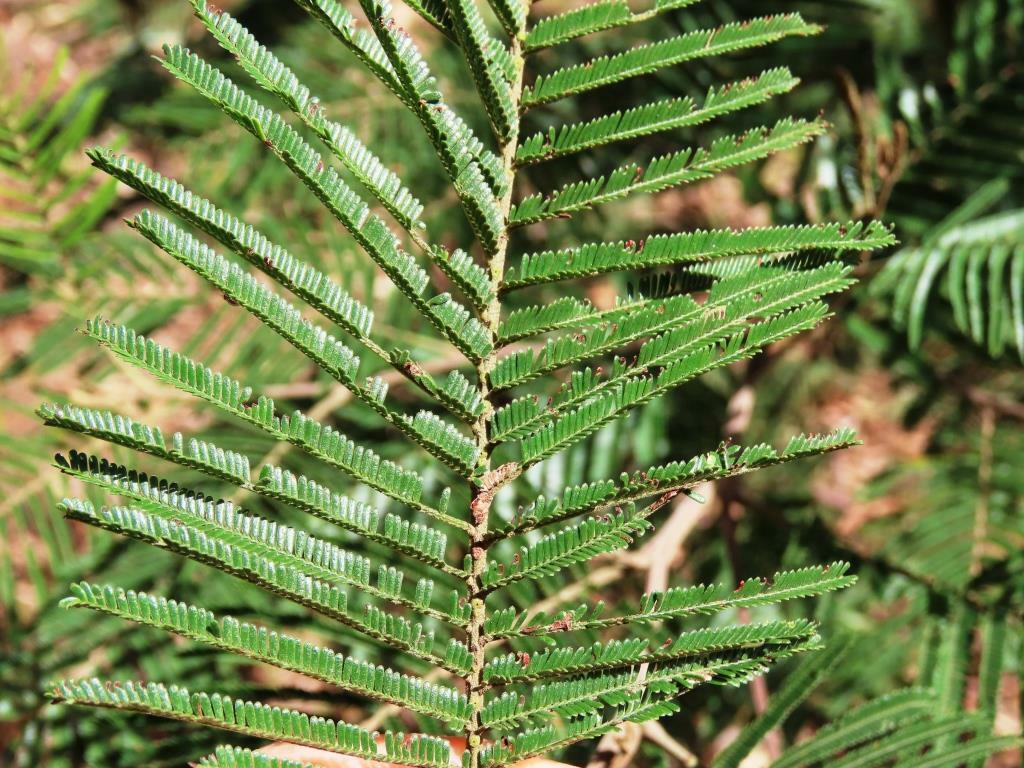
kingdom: Plantae
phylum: Tracheophyta
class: Magnoliopsida
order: Fabales
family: Fabaceae
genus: Acacia
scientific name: Acacia mearnsii
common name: Black wattle
